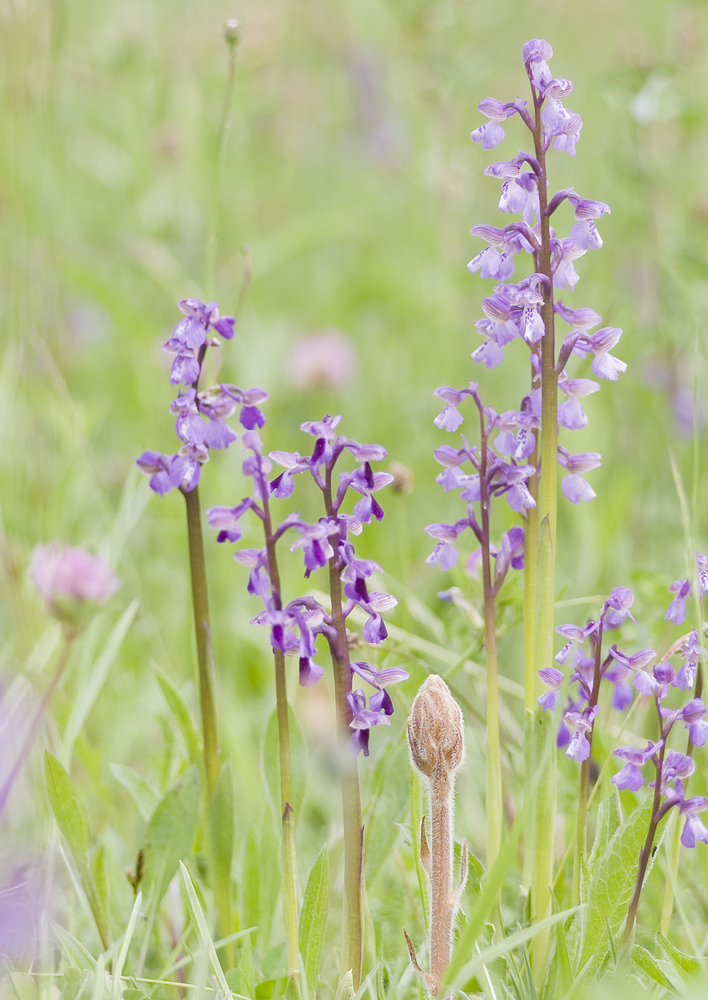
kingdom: Plantae
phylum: Tracheophyta
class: Liliopsida
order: Asparagales
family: Orchidaceae
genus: Anacamptis
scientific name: Anacamptis morio
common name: Green-winged orchid
